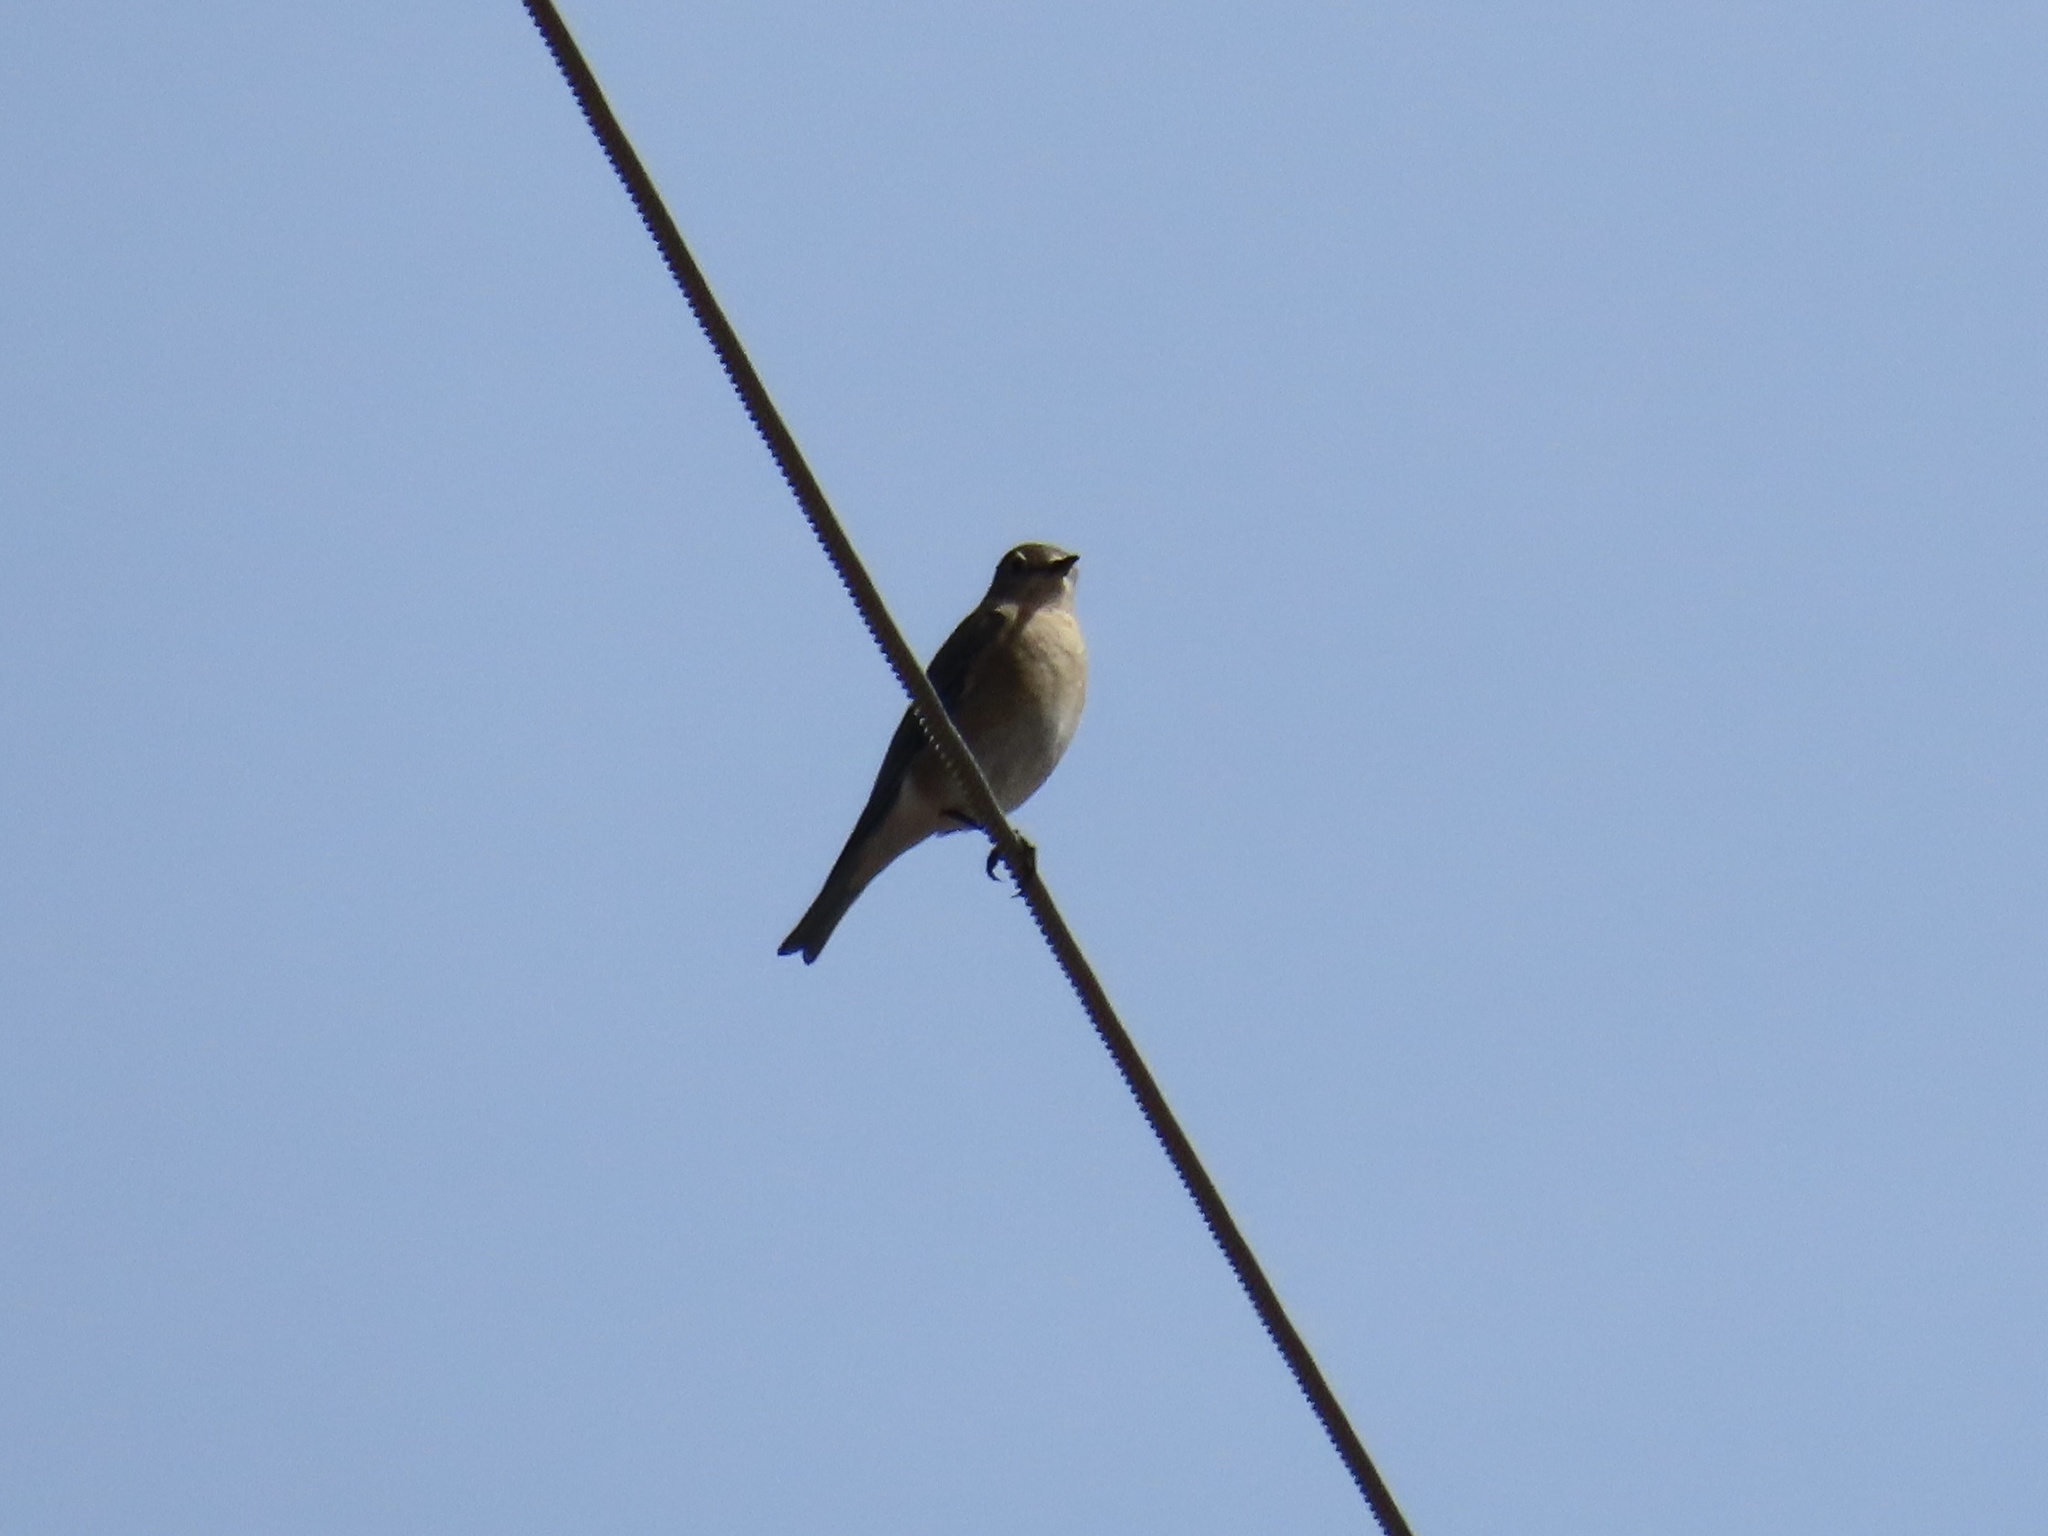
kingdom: Animalia
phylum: Chordata
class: Aves
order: Passeriformes
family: Turdidae
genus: Sialia
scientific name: Sialia currucoides
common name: Mountain bluebird
